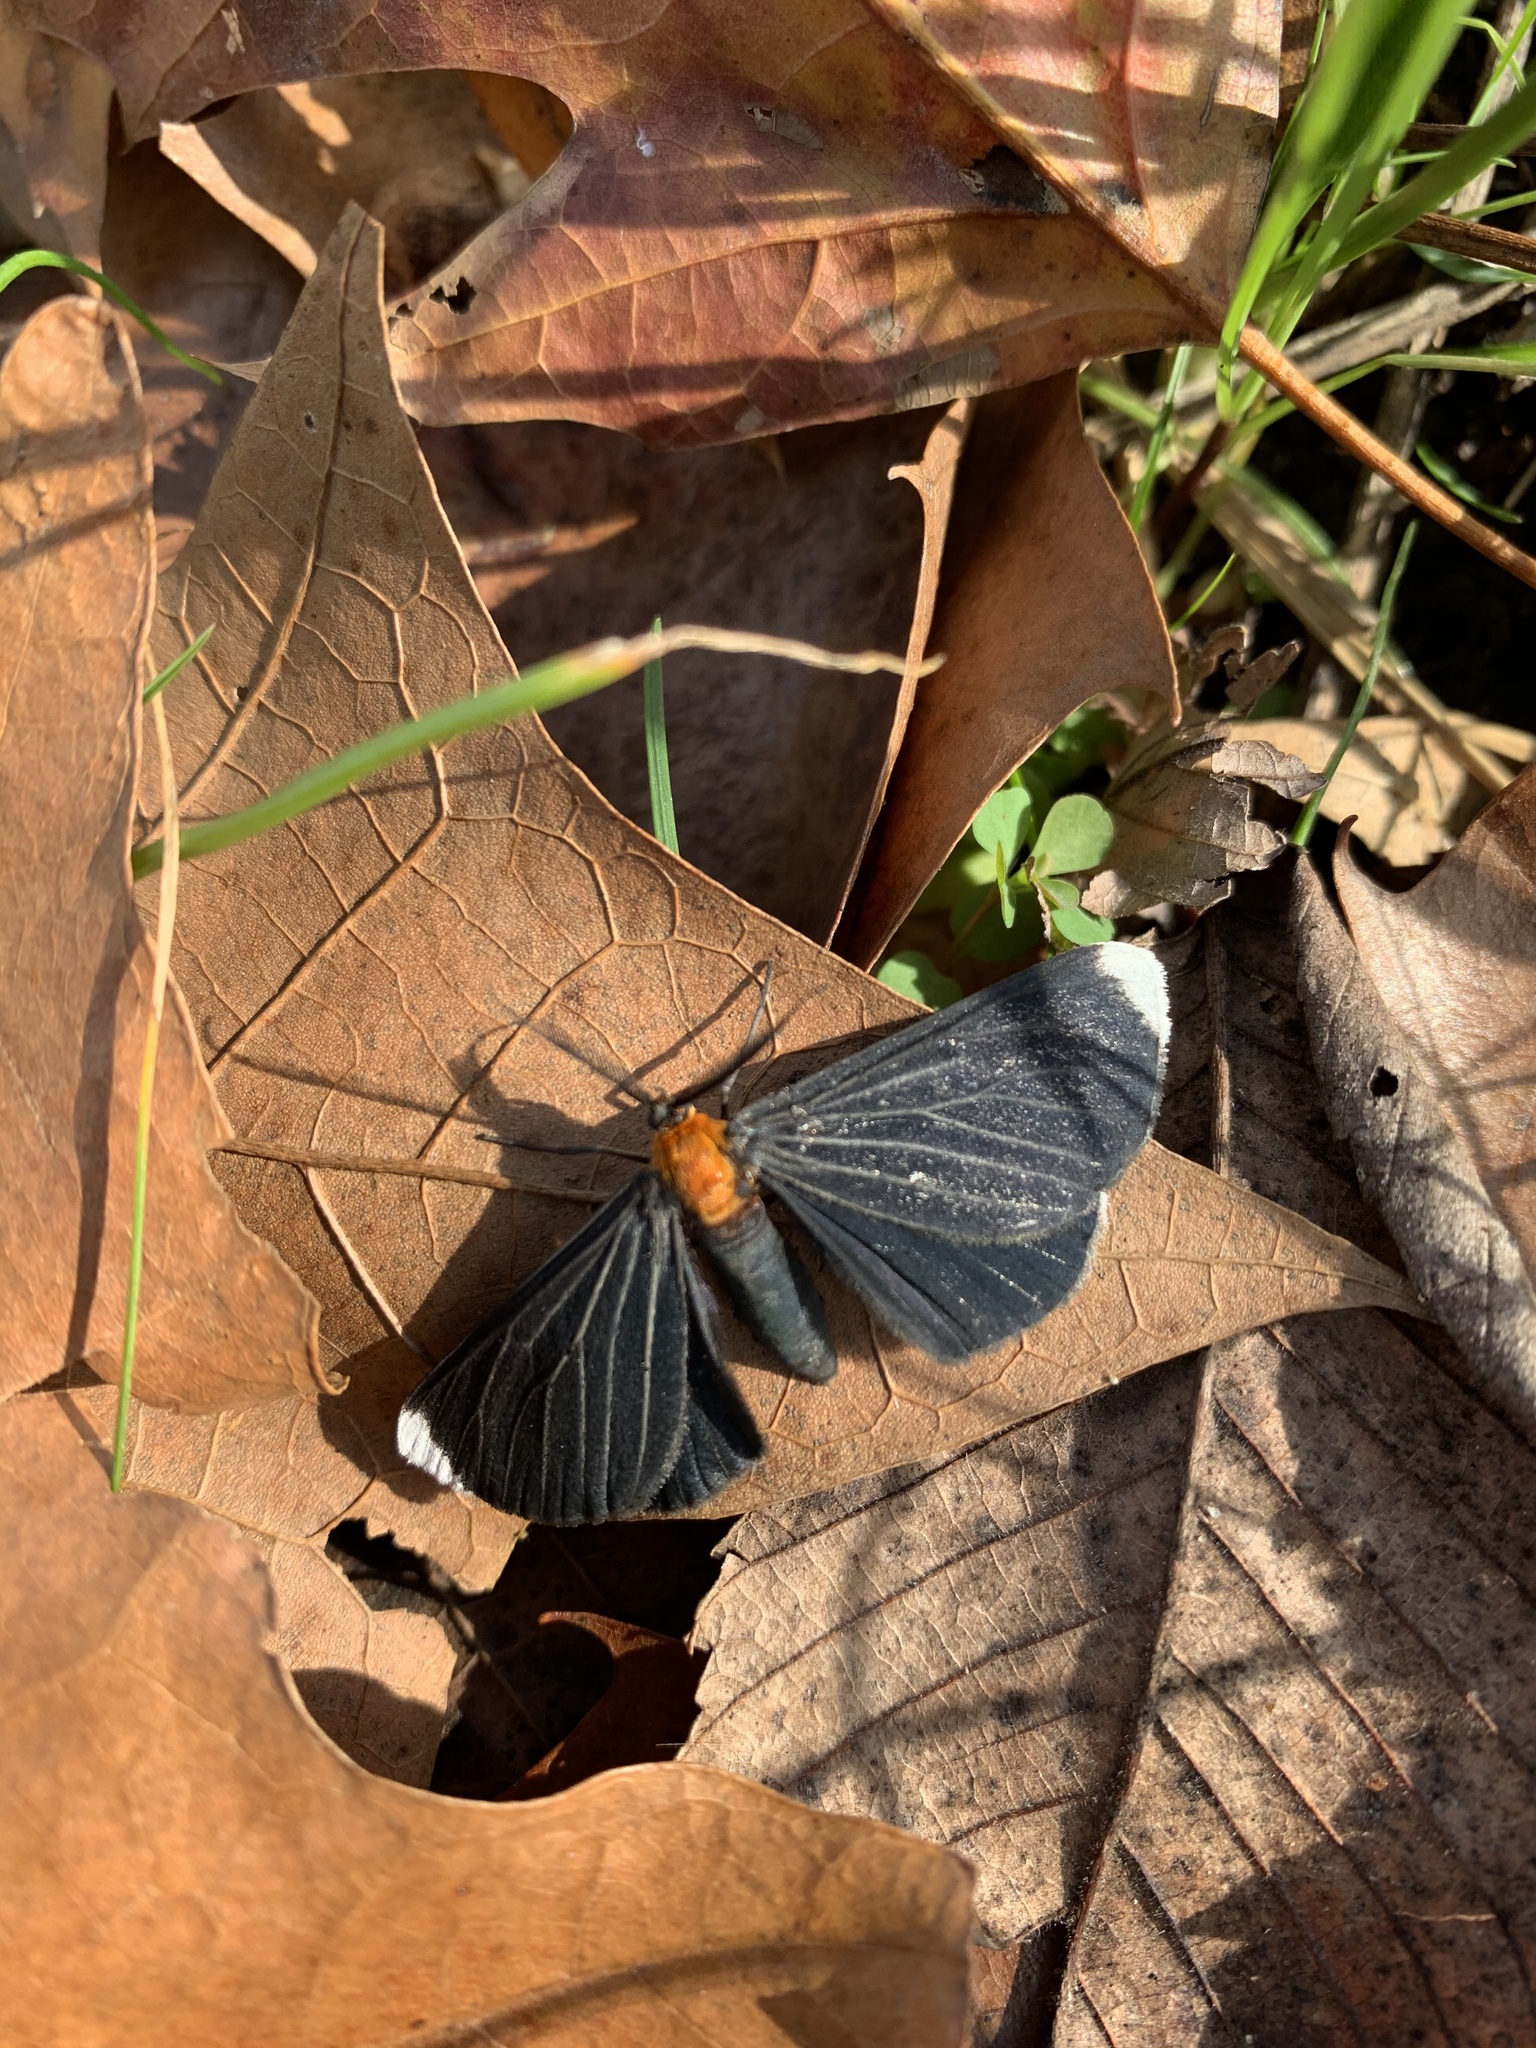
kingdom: Animalia
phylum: Arthropoda
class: Insecta
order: Lepidoptera
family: Geometridae
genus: Melanchroia
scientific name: Melanchroia chephise
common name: White-tipped black
